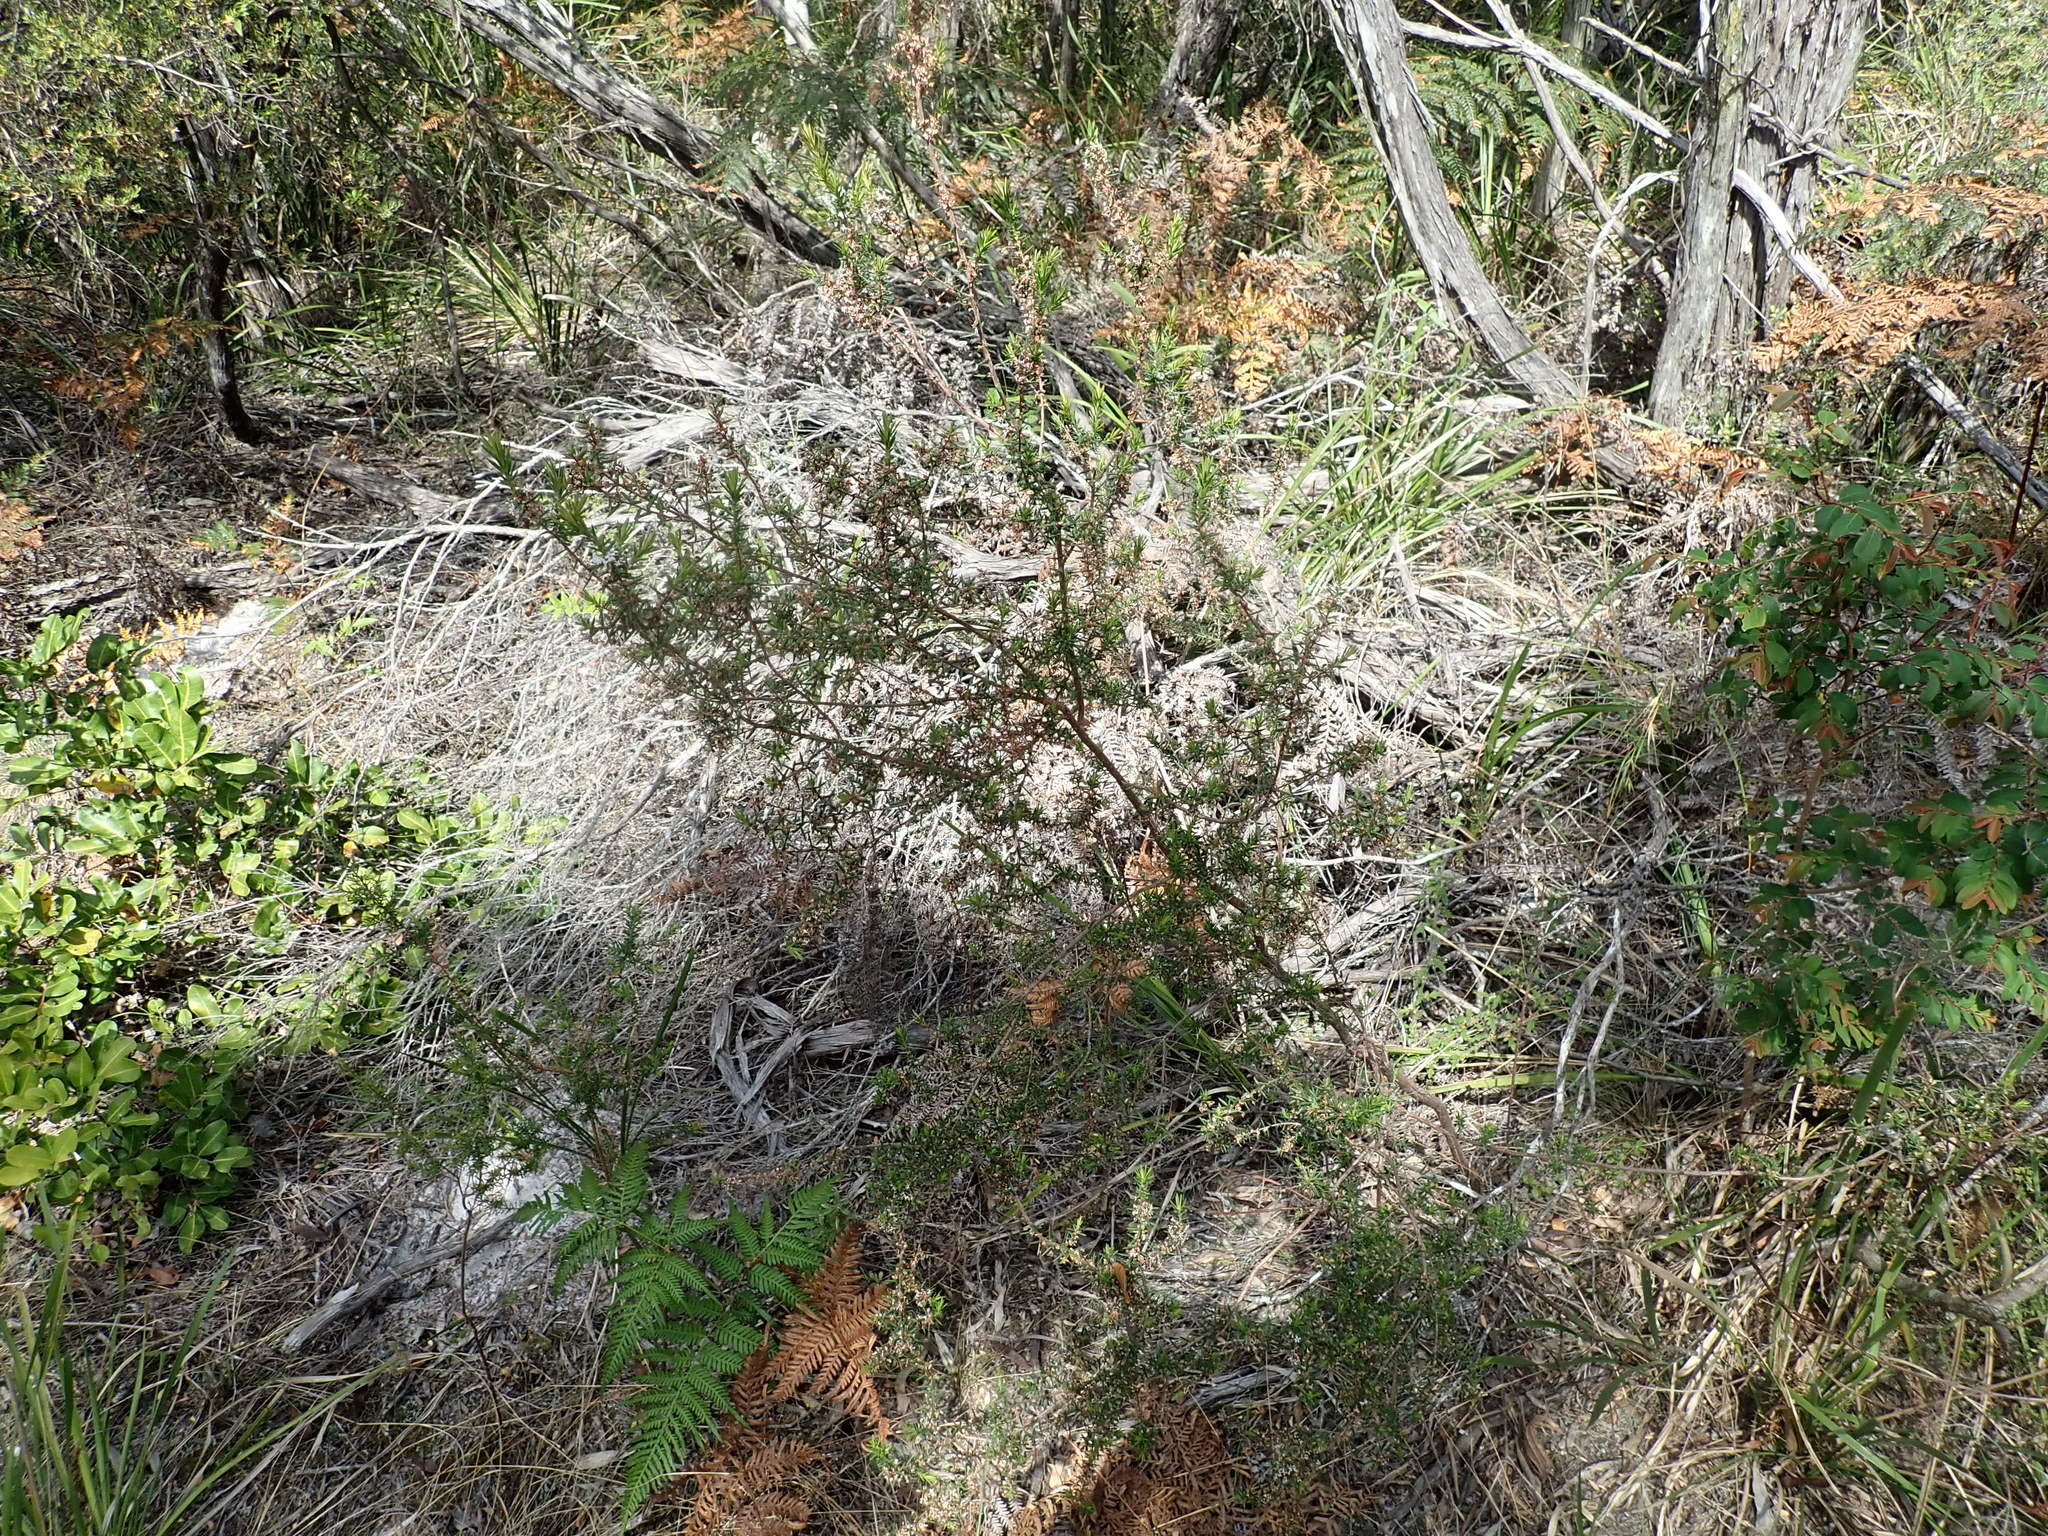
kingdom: Plantae
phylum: Tracheophyta
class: Magnoliopsida
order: Ericales
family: Ericaceae
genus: Styphelia
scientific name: Styphelia ericoides
